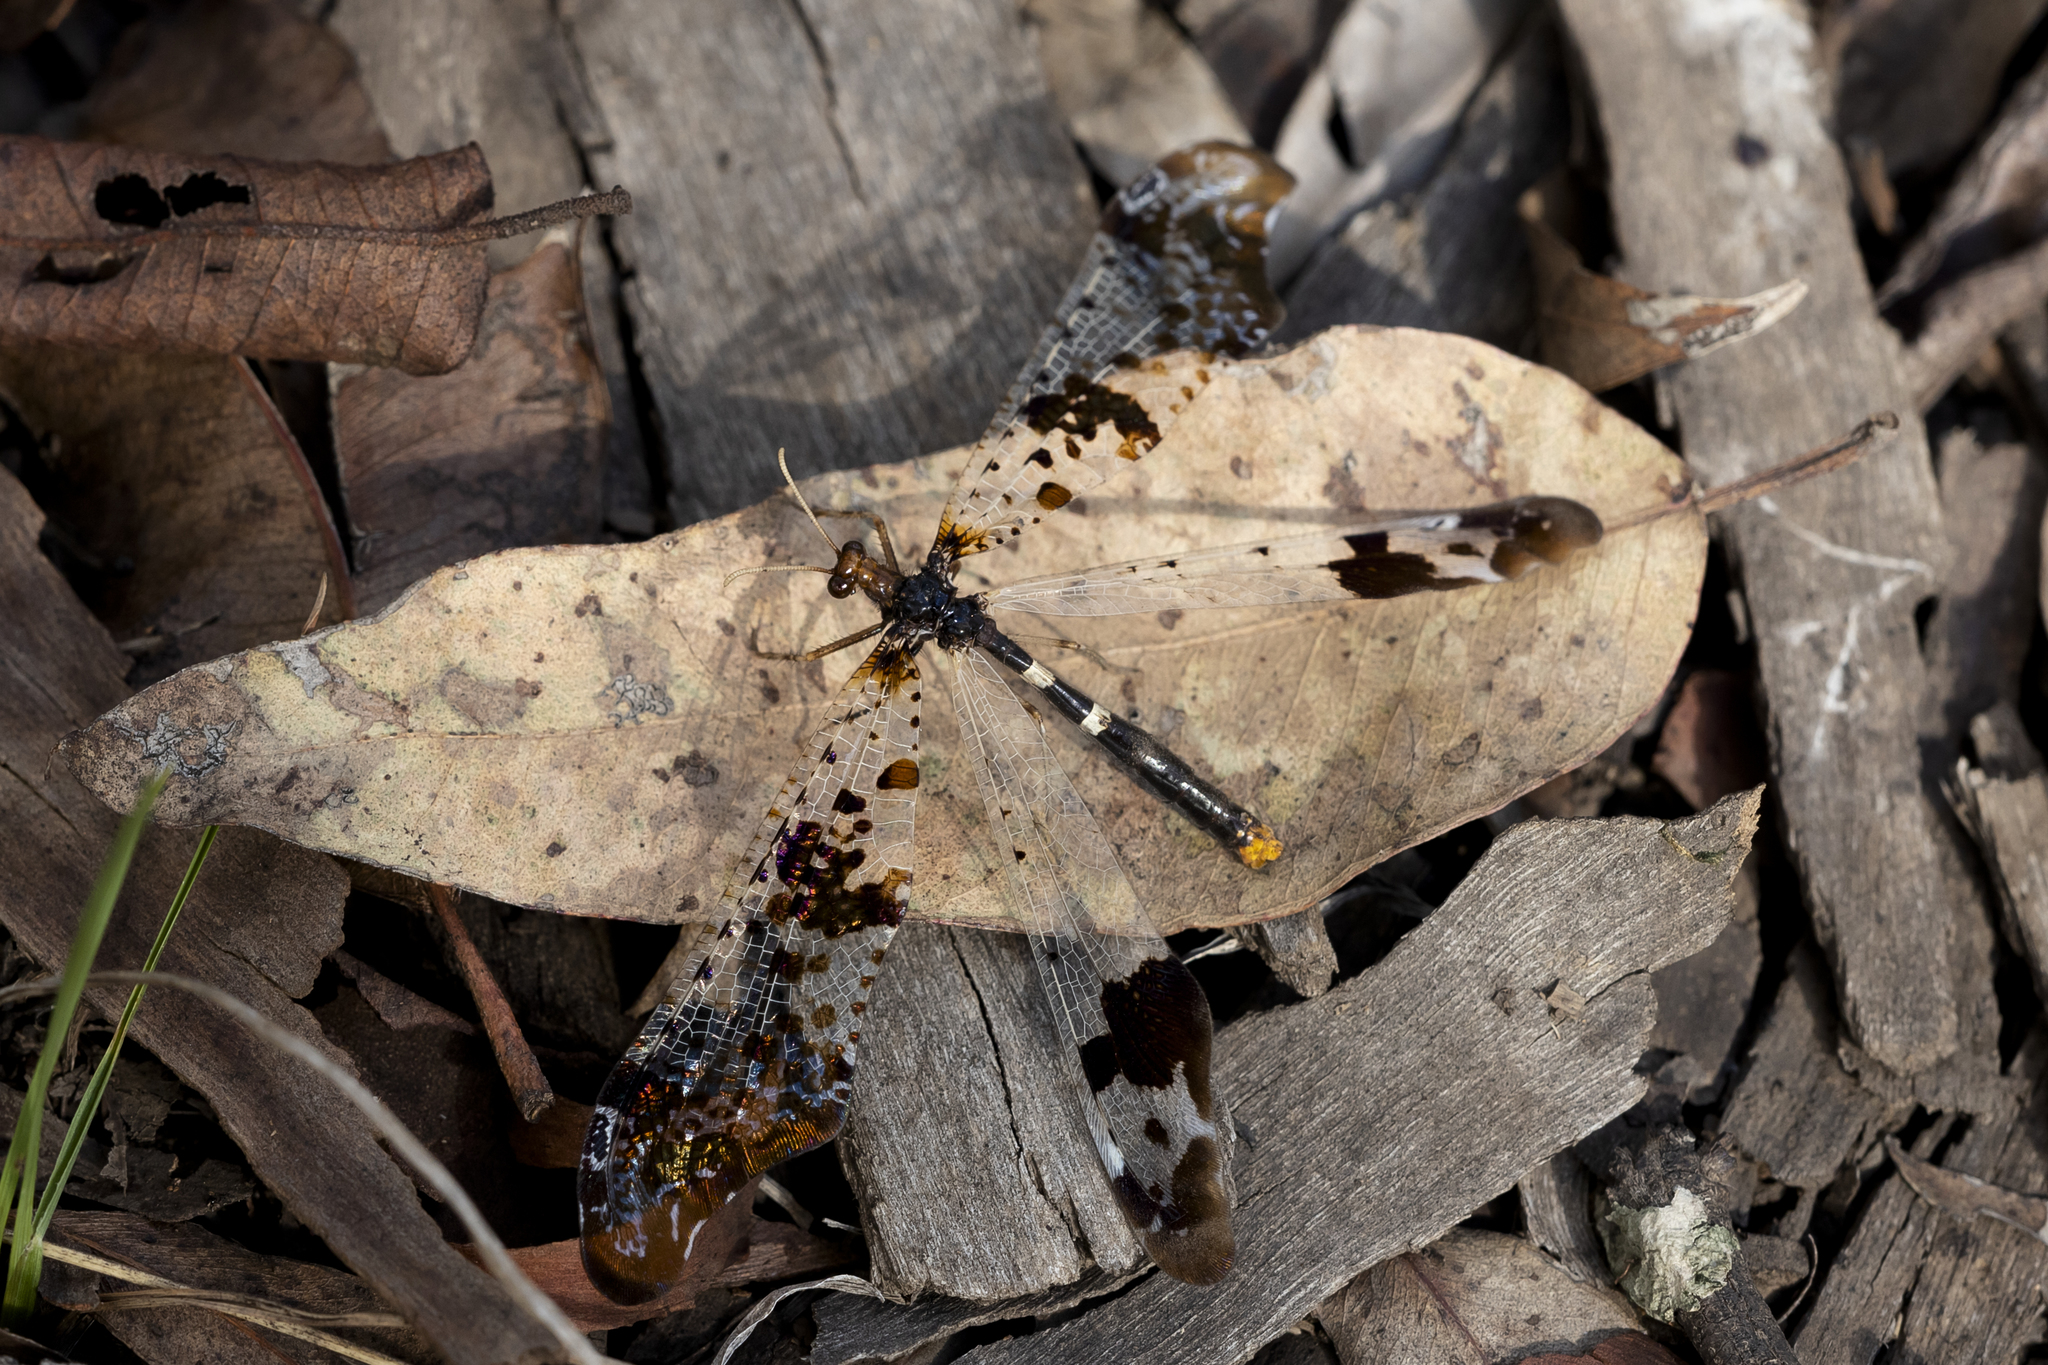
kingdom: Animalia
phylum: Arthropoda
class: Insecta
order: Neuroptera
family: Myrmeleontidae
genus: Periclystus
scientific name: Periclystus circuiter
